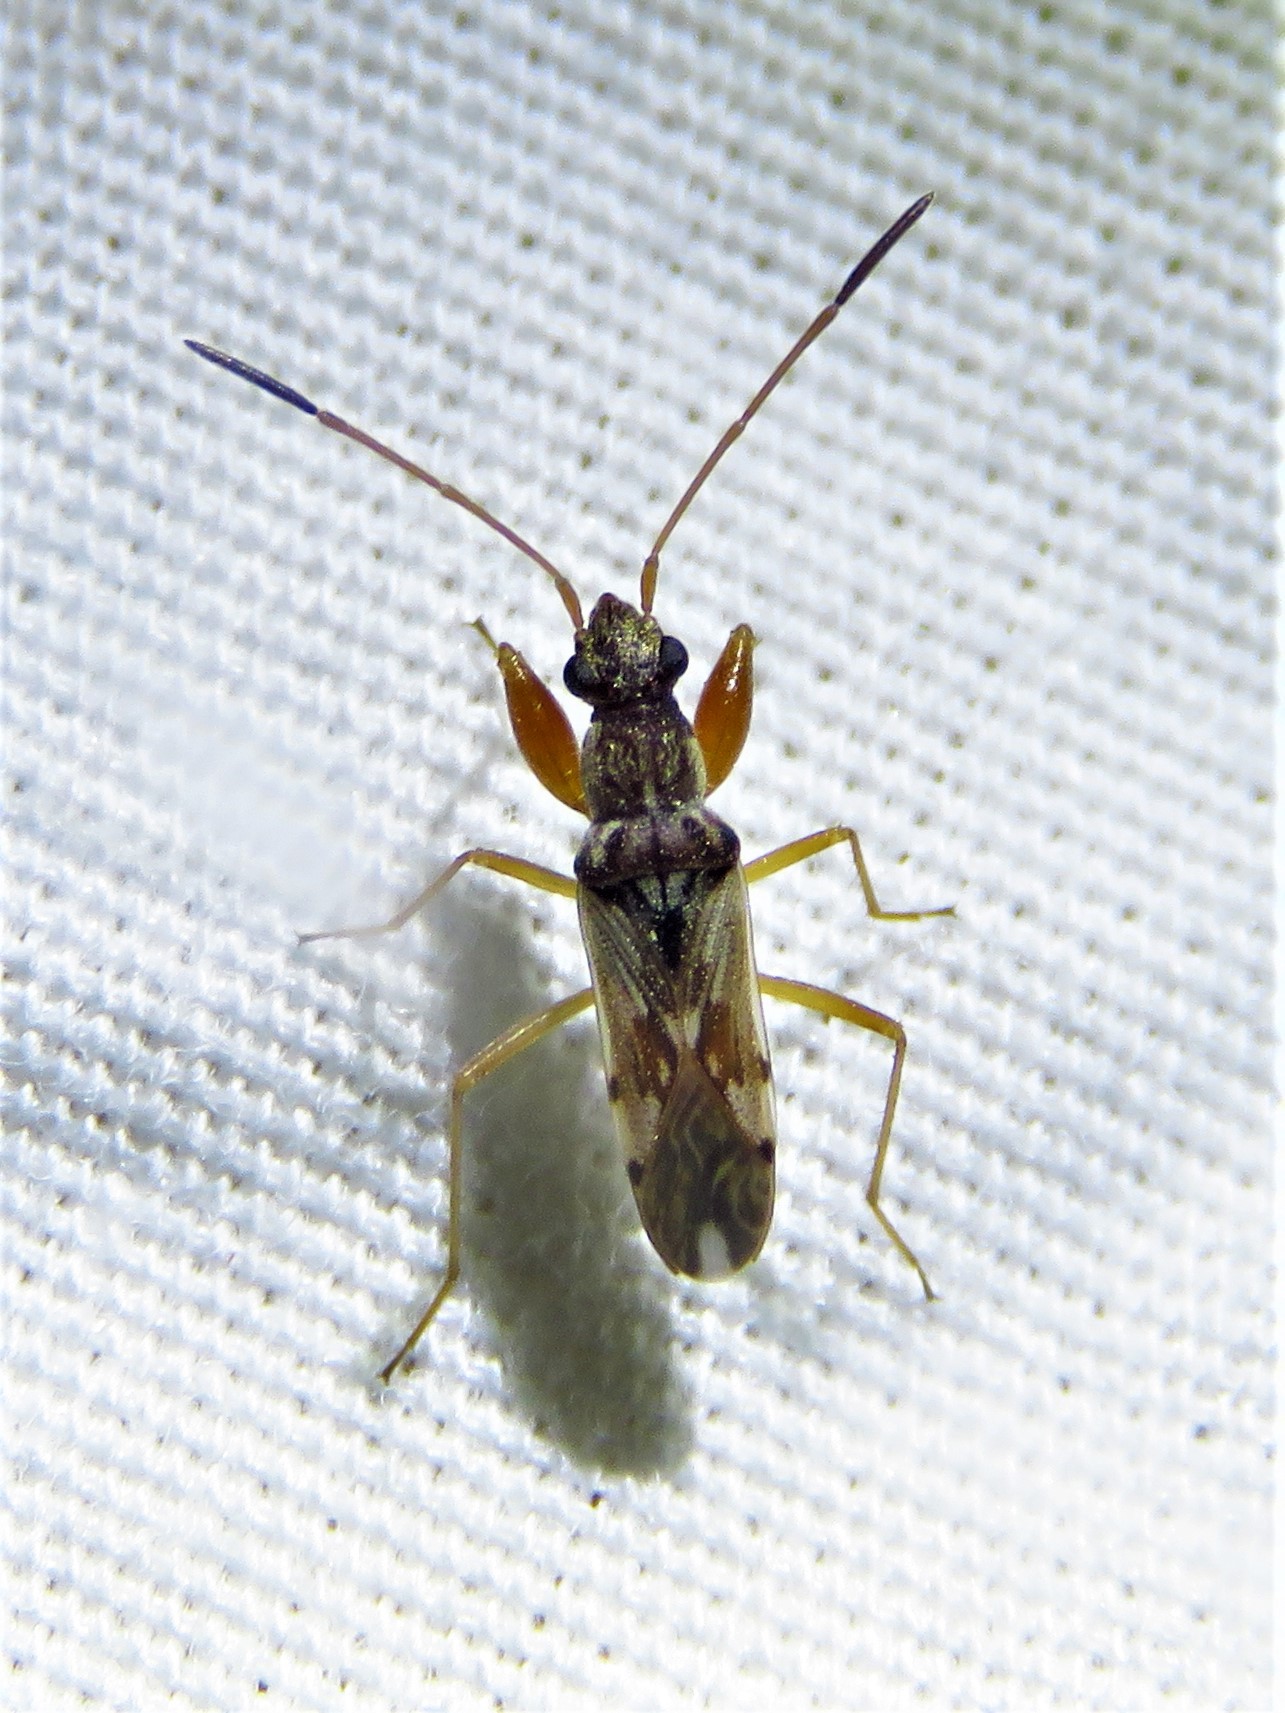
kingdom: Animalia
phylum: Arthropoda
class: Insecta
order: Hemiptera
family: Rhyparochromidae
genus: Neopamera
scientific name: Neopamera bilobata
